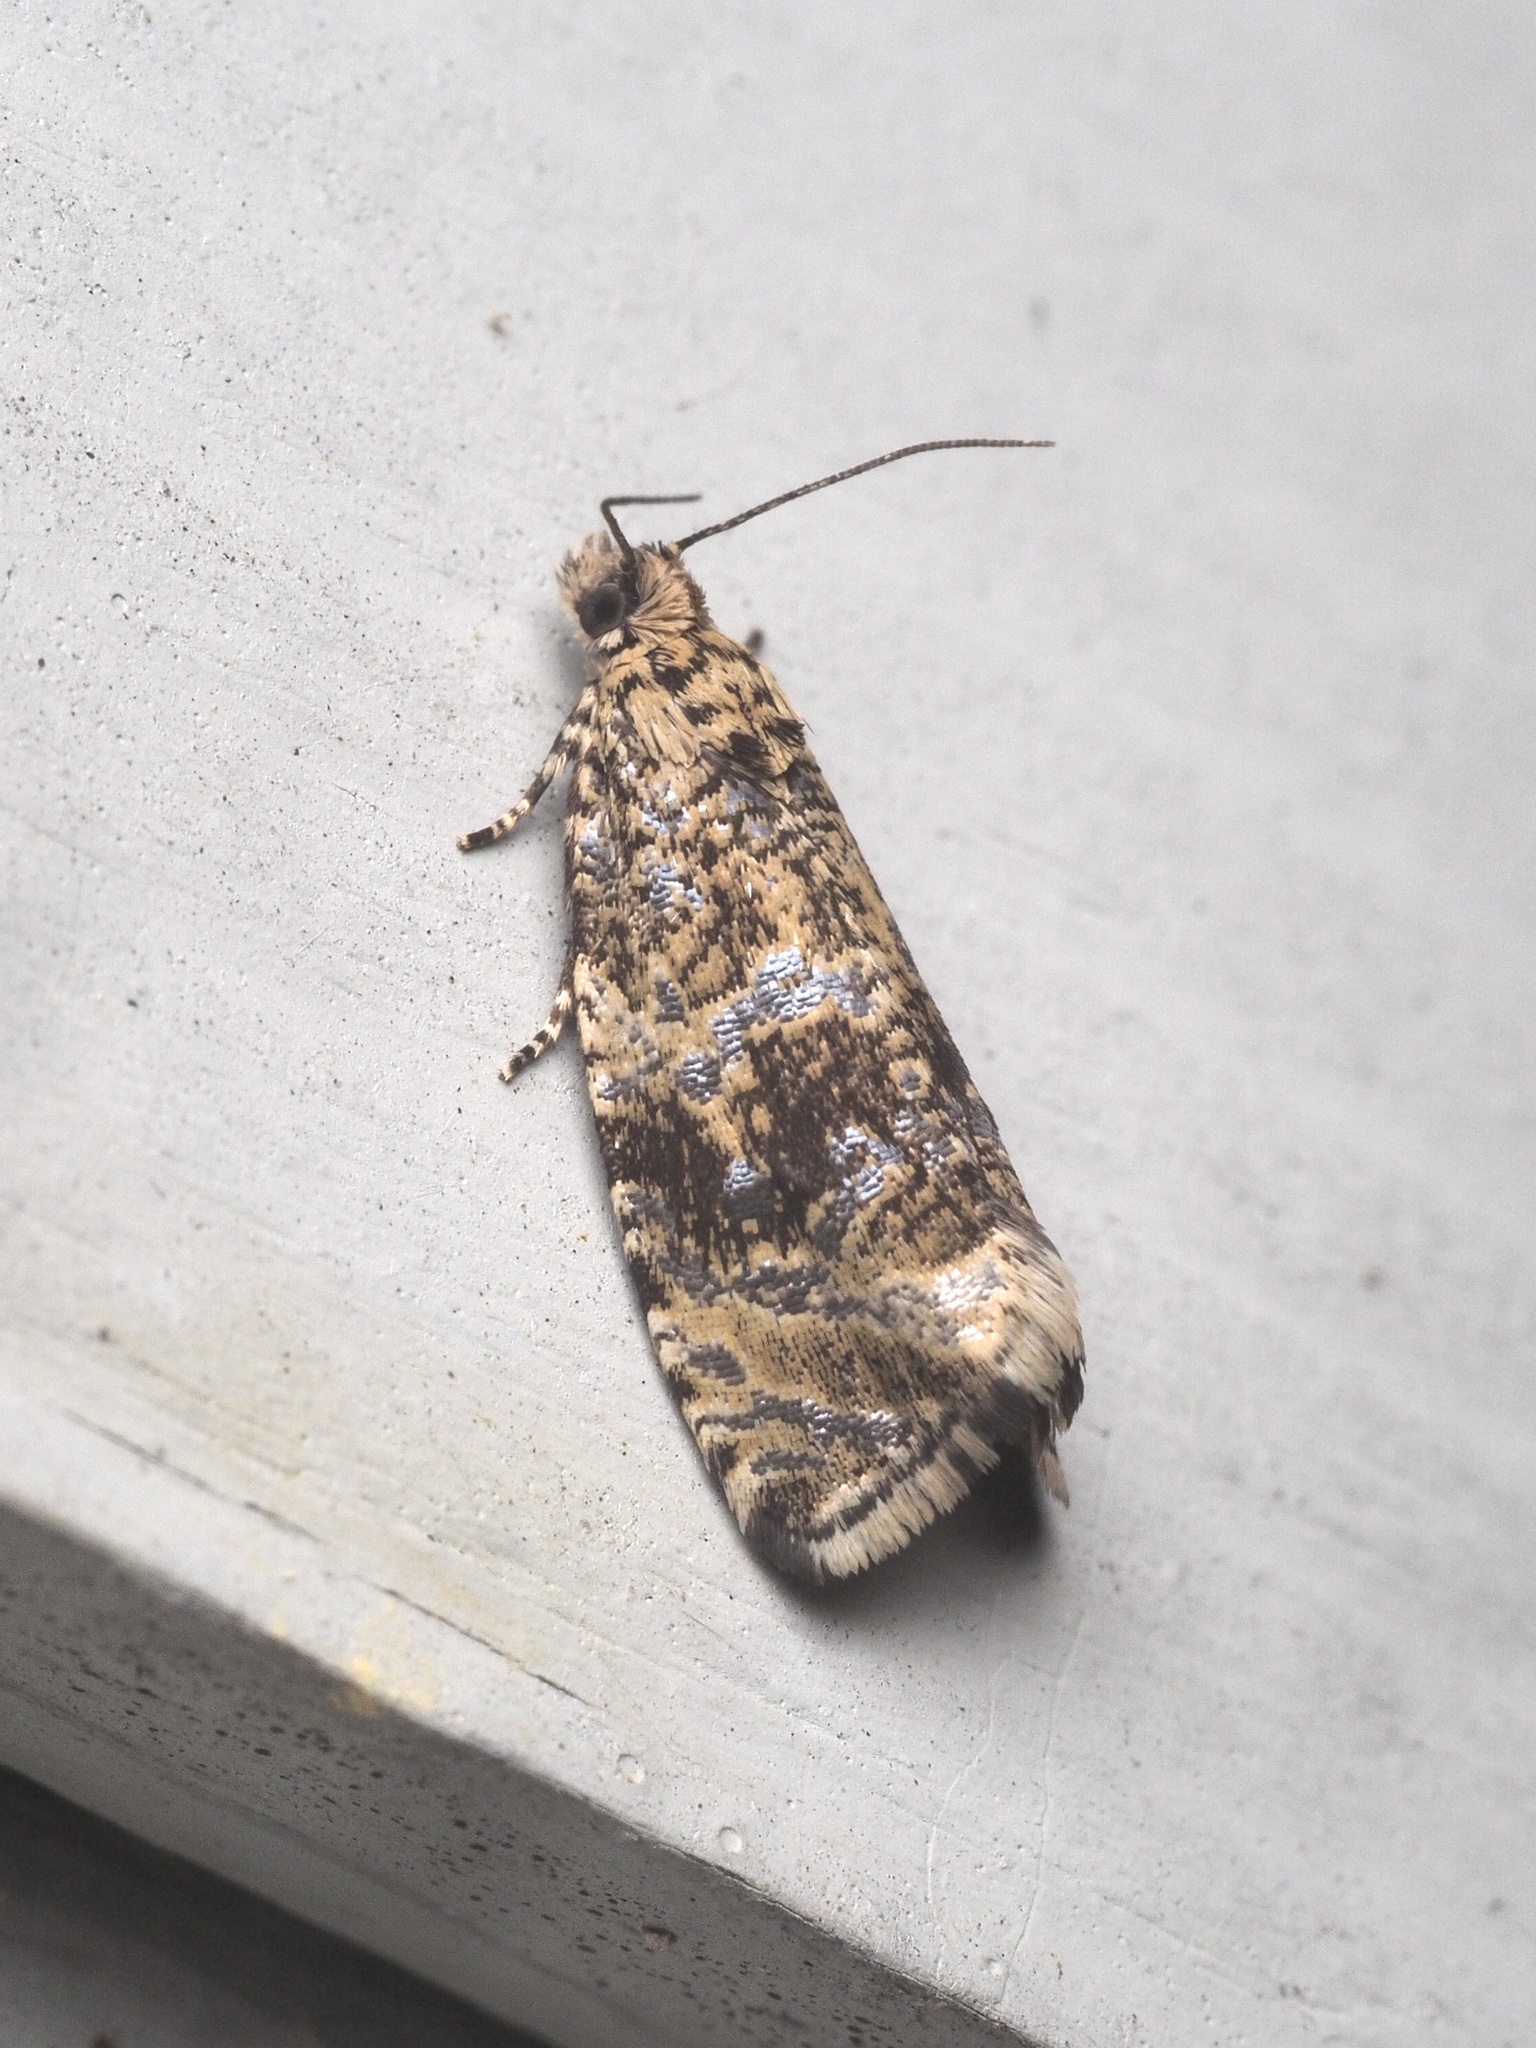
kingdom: Animalia
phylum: Arthropoda
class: Insecta
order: Lepidoptera
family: Tortricidae
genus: Syricoris
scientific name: Syricoris lacunana
